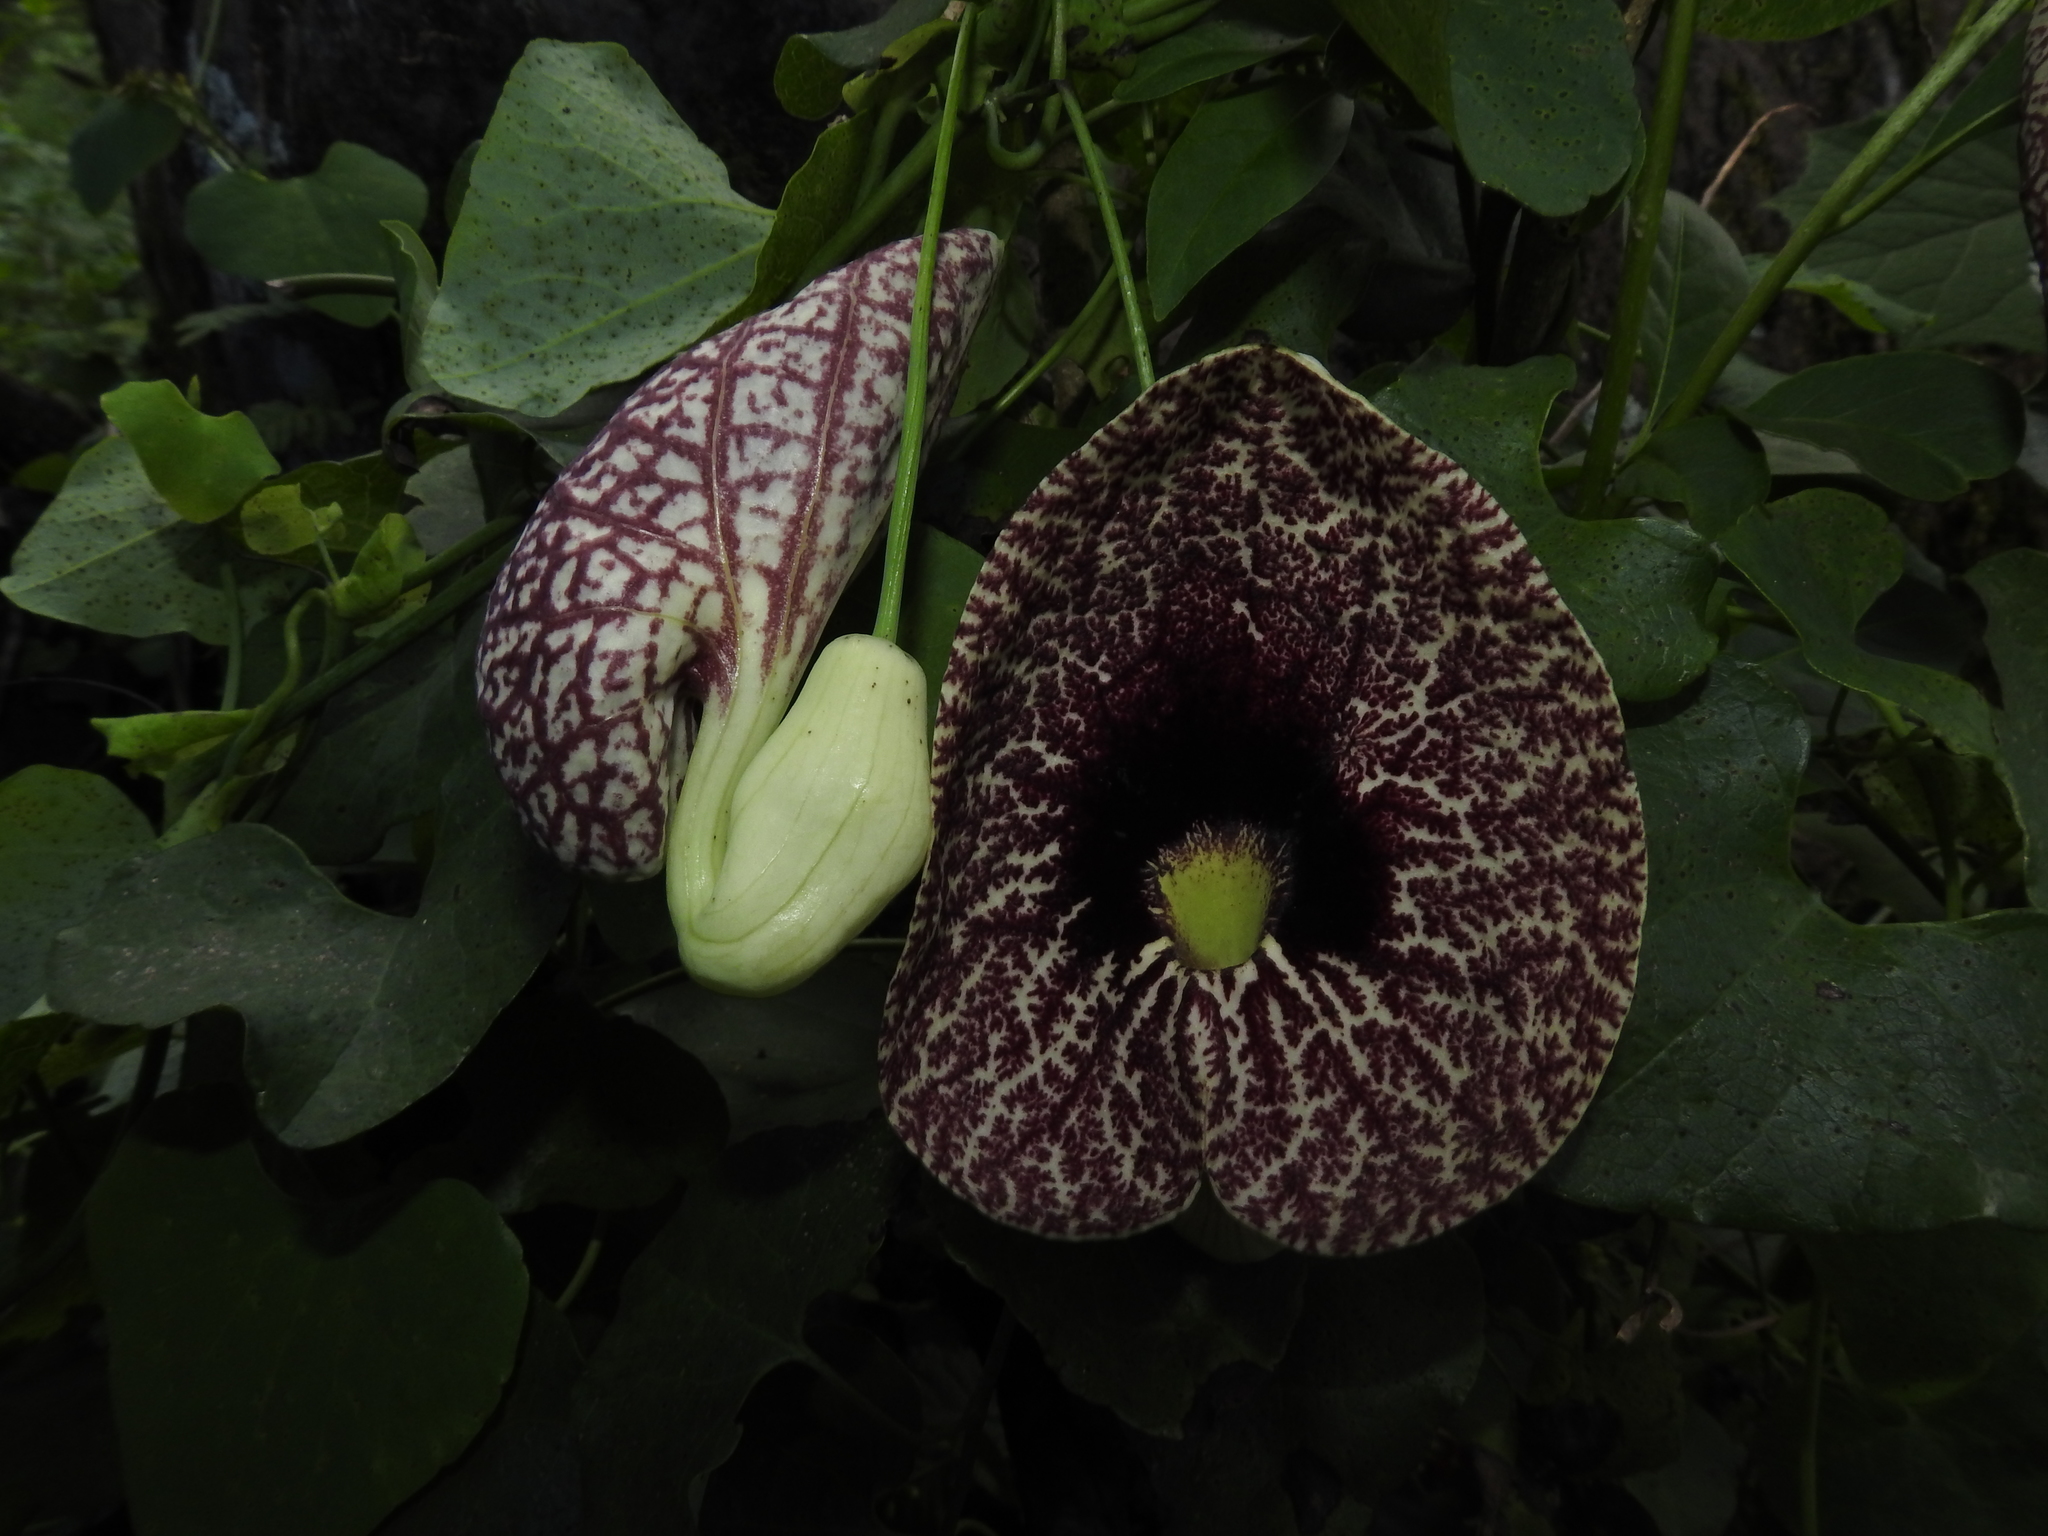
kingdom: Plantae
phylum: Tracheophyta
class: Magnoliopsida
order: Piperales
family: Aristolochiaceae
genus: Aristolochia
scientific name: Aristolochia littoralis
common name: Duck
